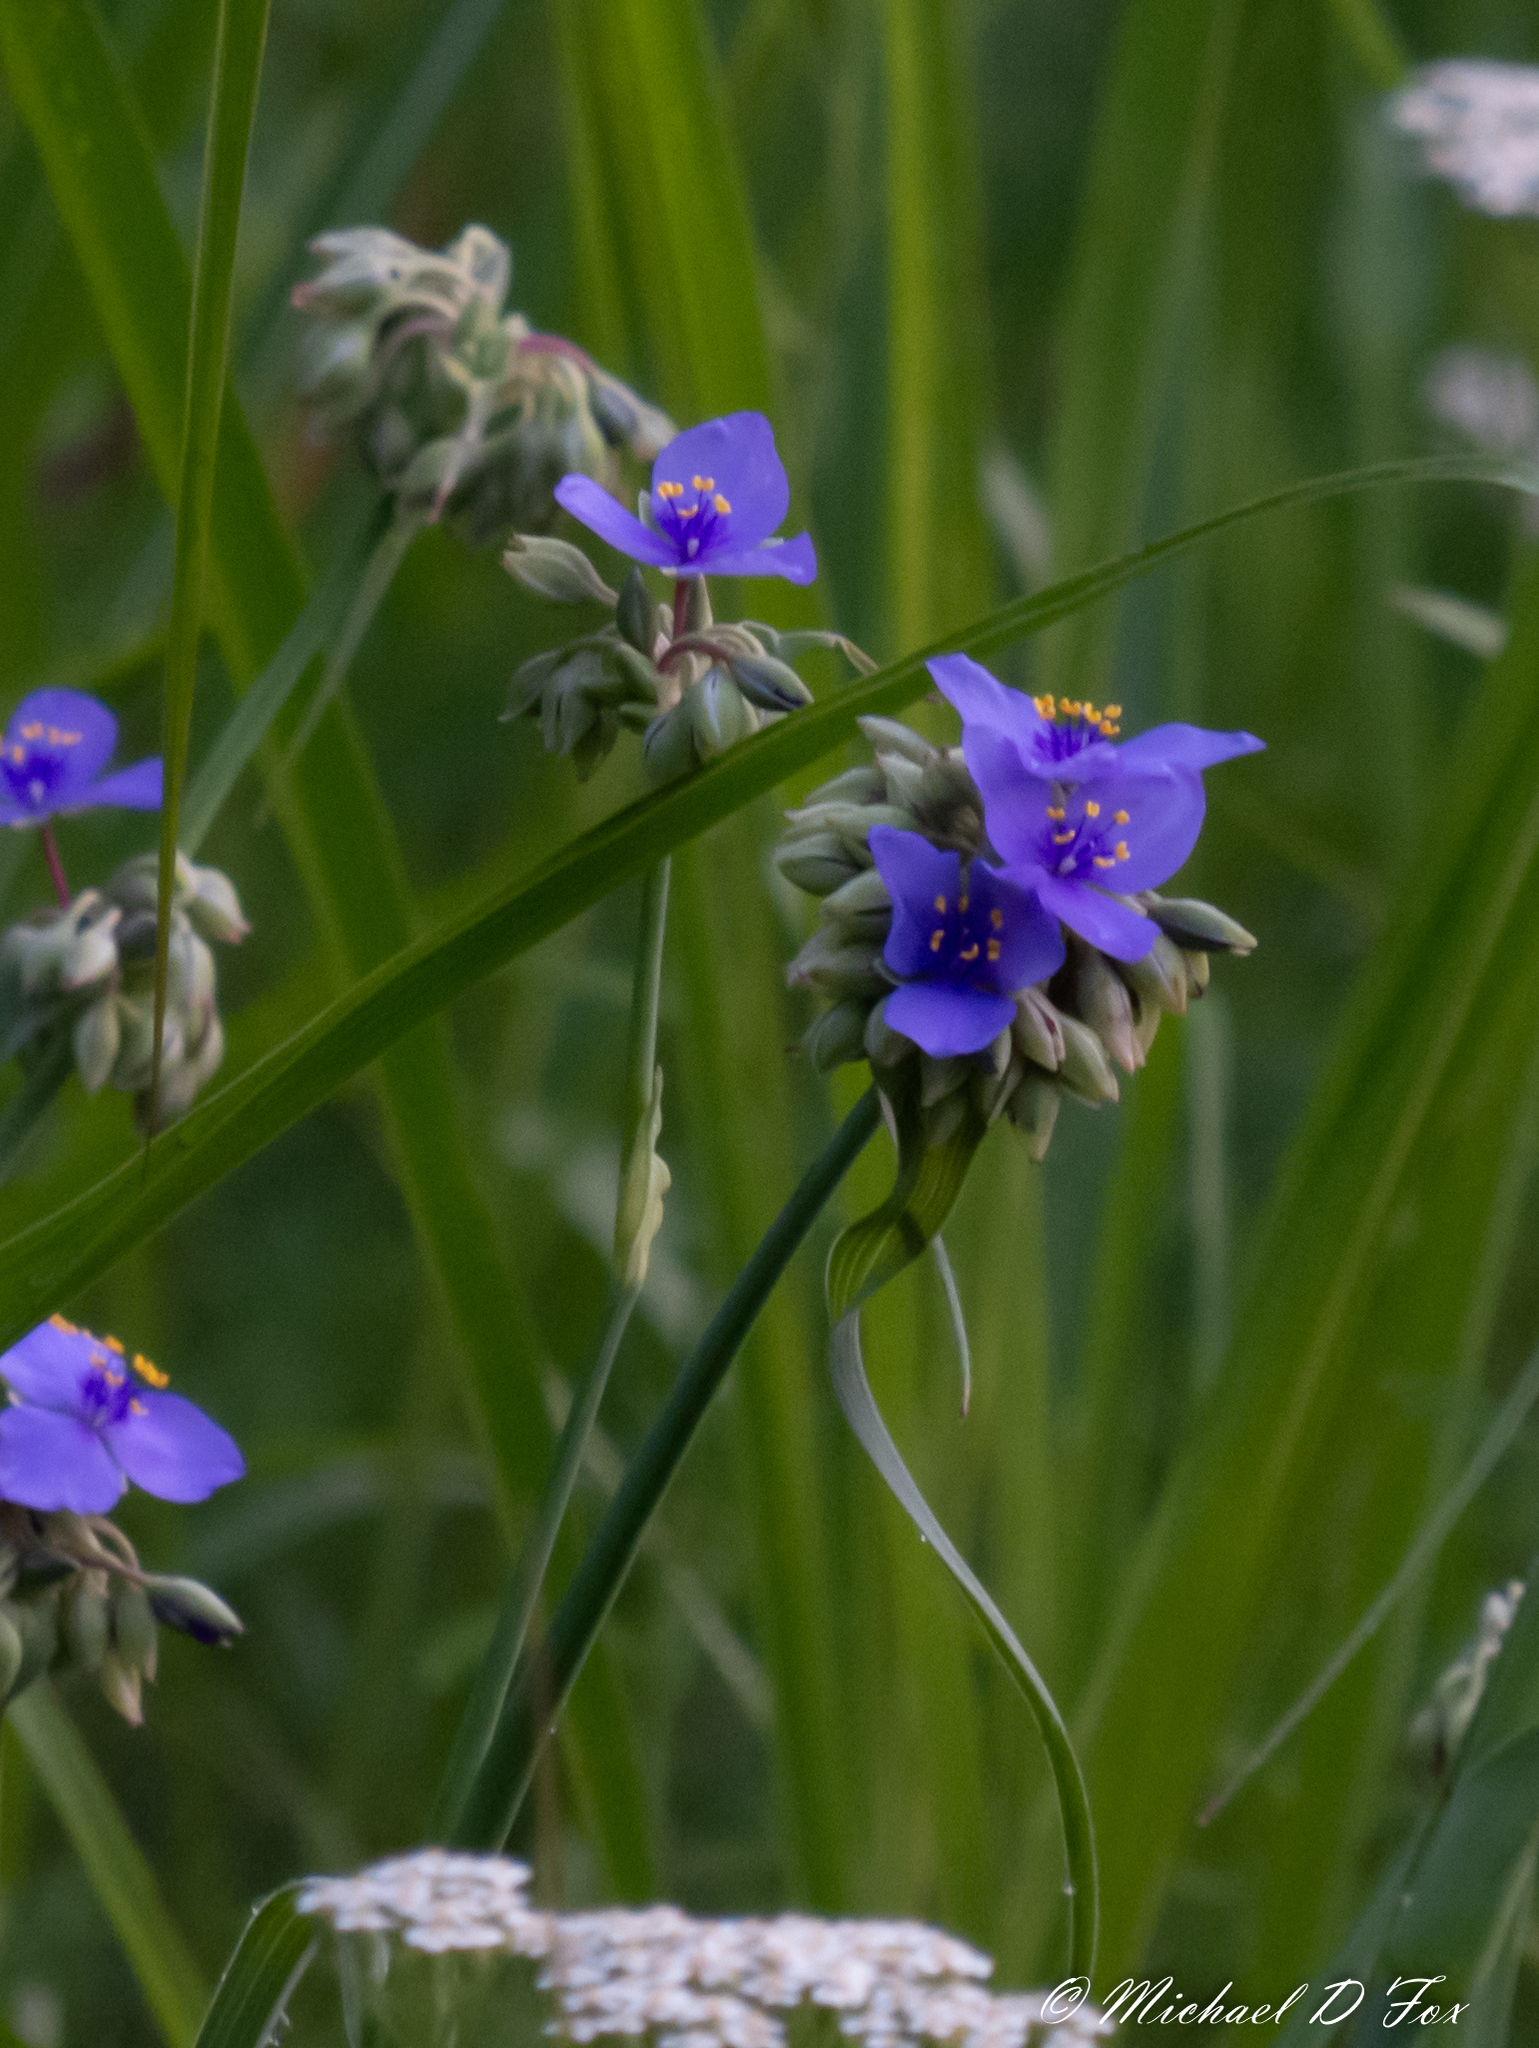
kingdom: Plantae
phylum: Tracheophyta
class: Liliopsida
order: Commelinales
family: Commelinaceae
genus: Tradescantia
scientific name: Tradescantia ohiensis
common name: Ohio spiderwort
